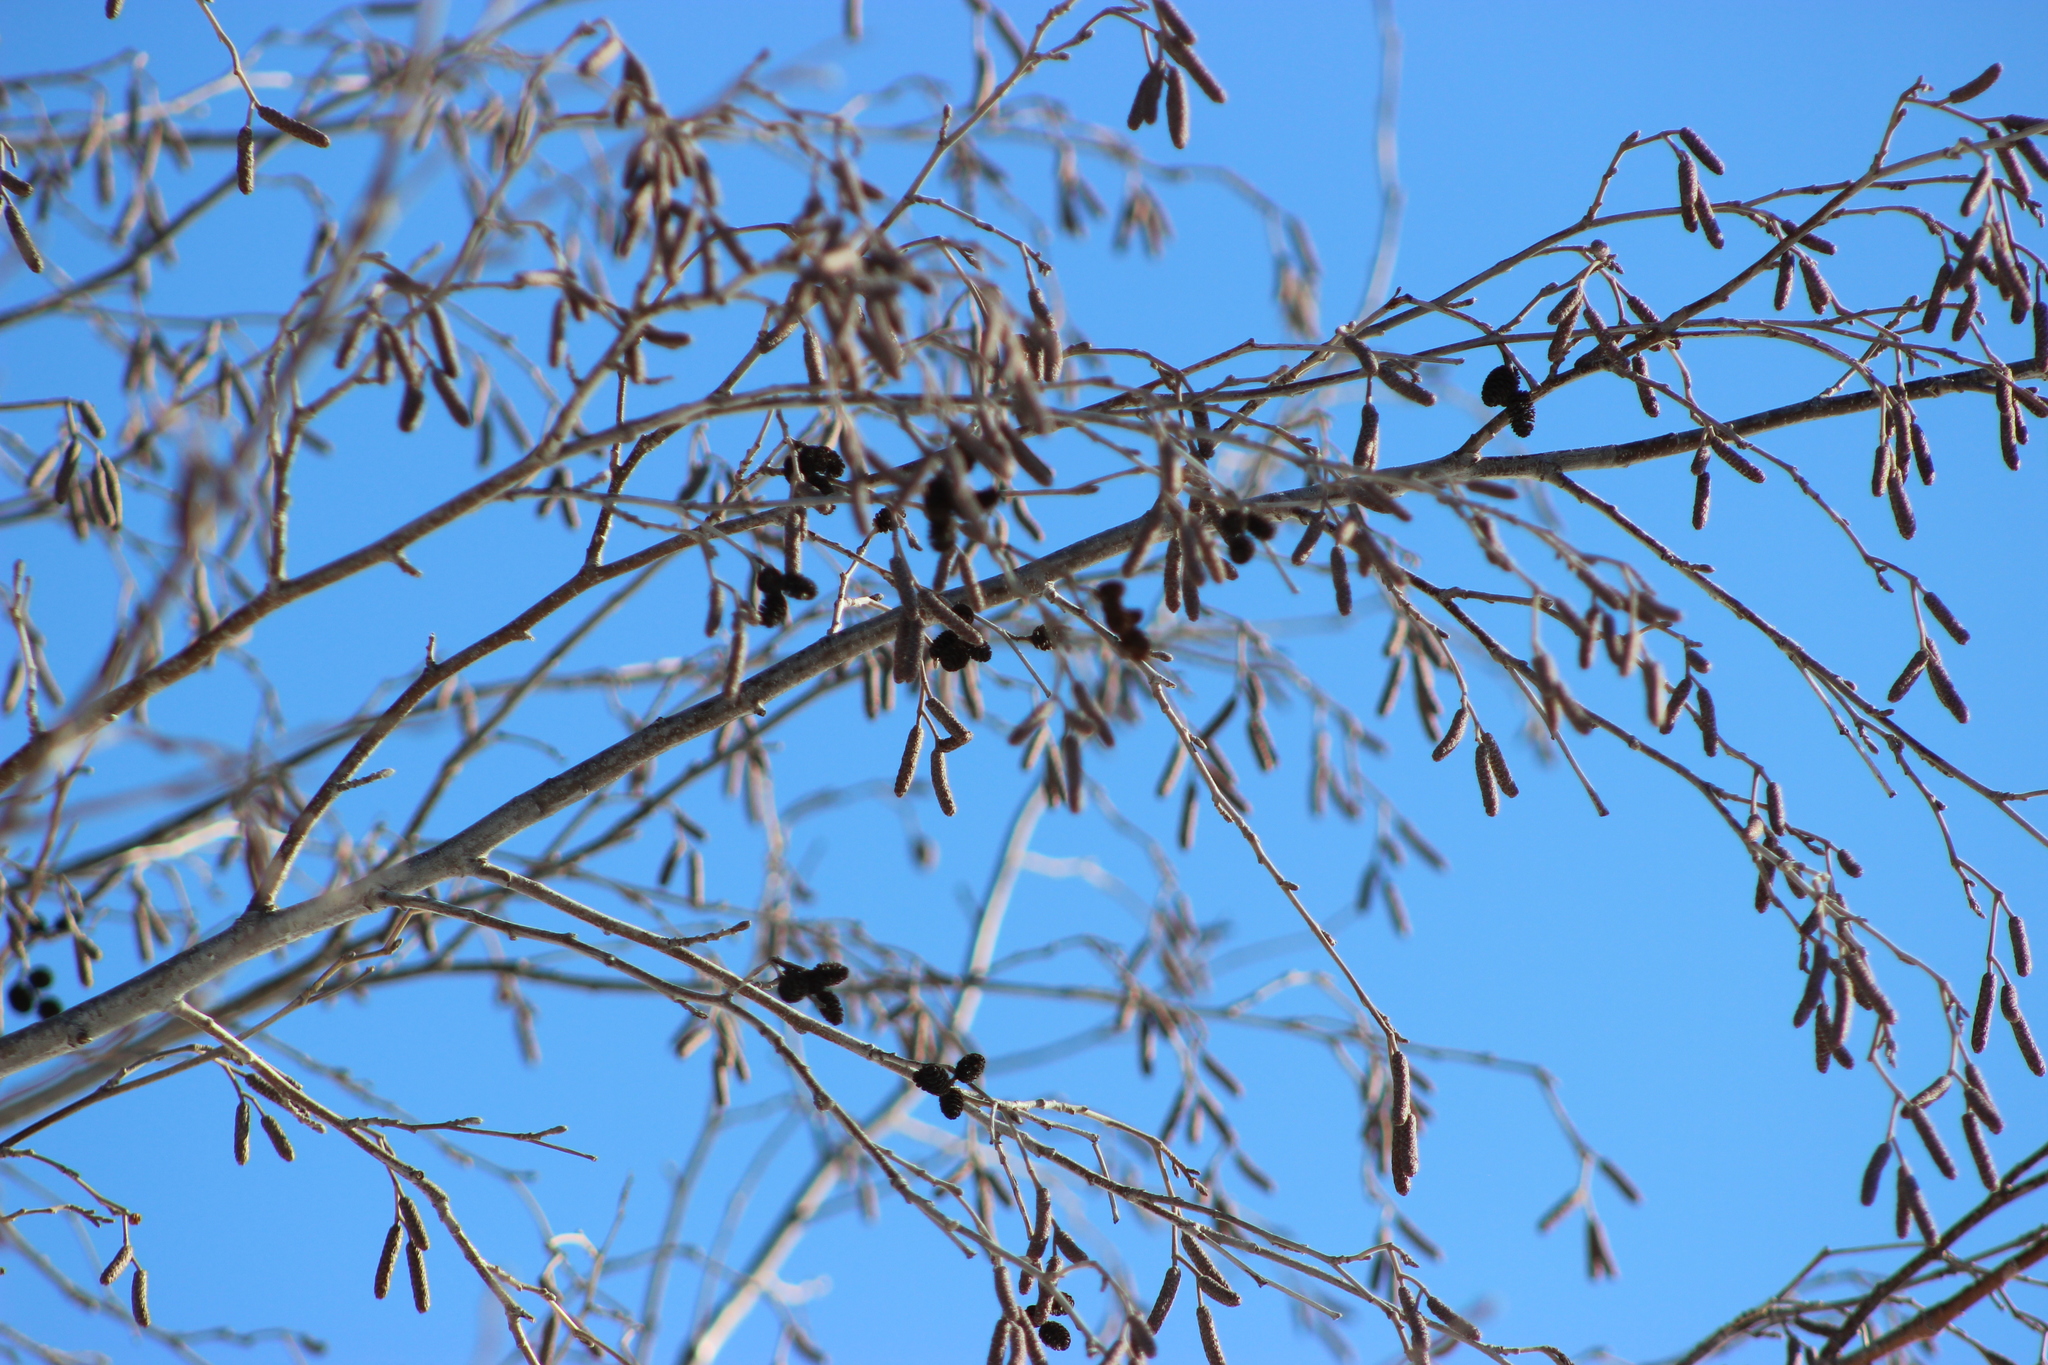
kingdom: Plantae
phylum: Tracheophyta
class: Magnoliopsida
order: Fagales
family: Betulaceae
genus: Alnus
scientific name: Alnus incana
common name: Grey alder
